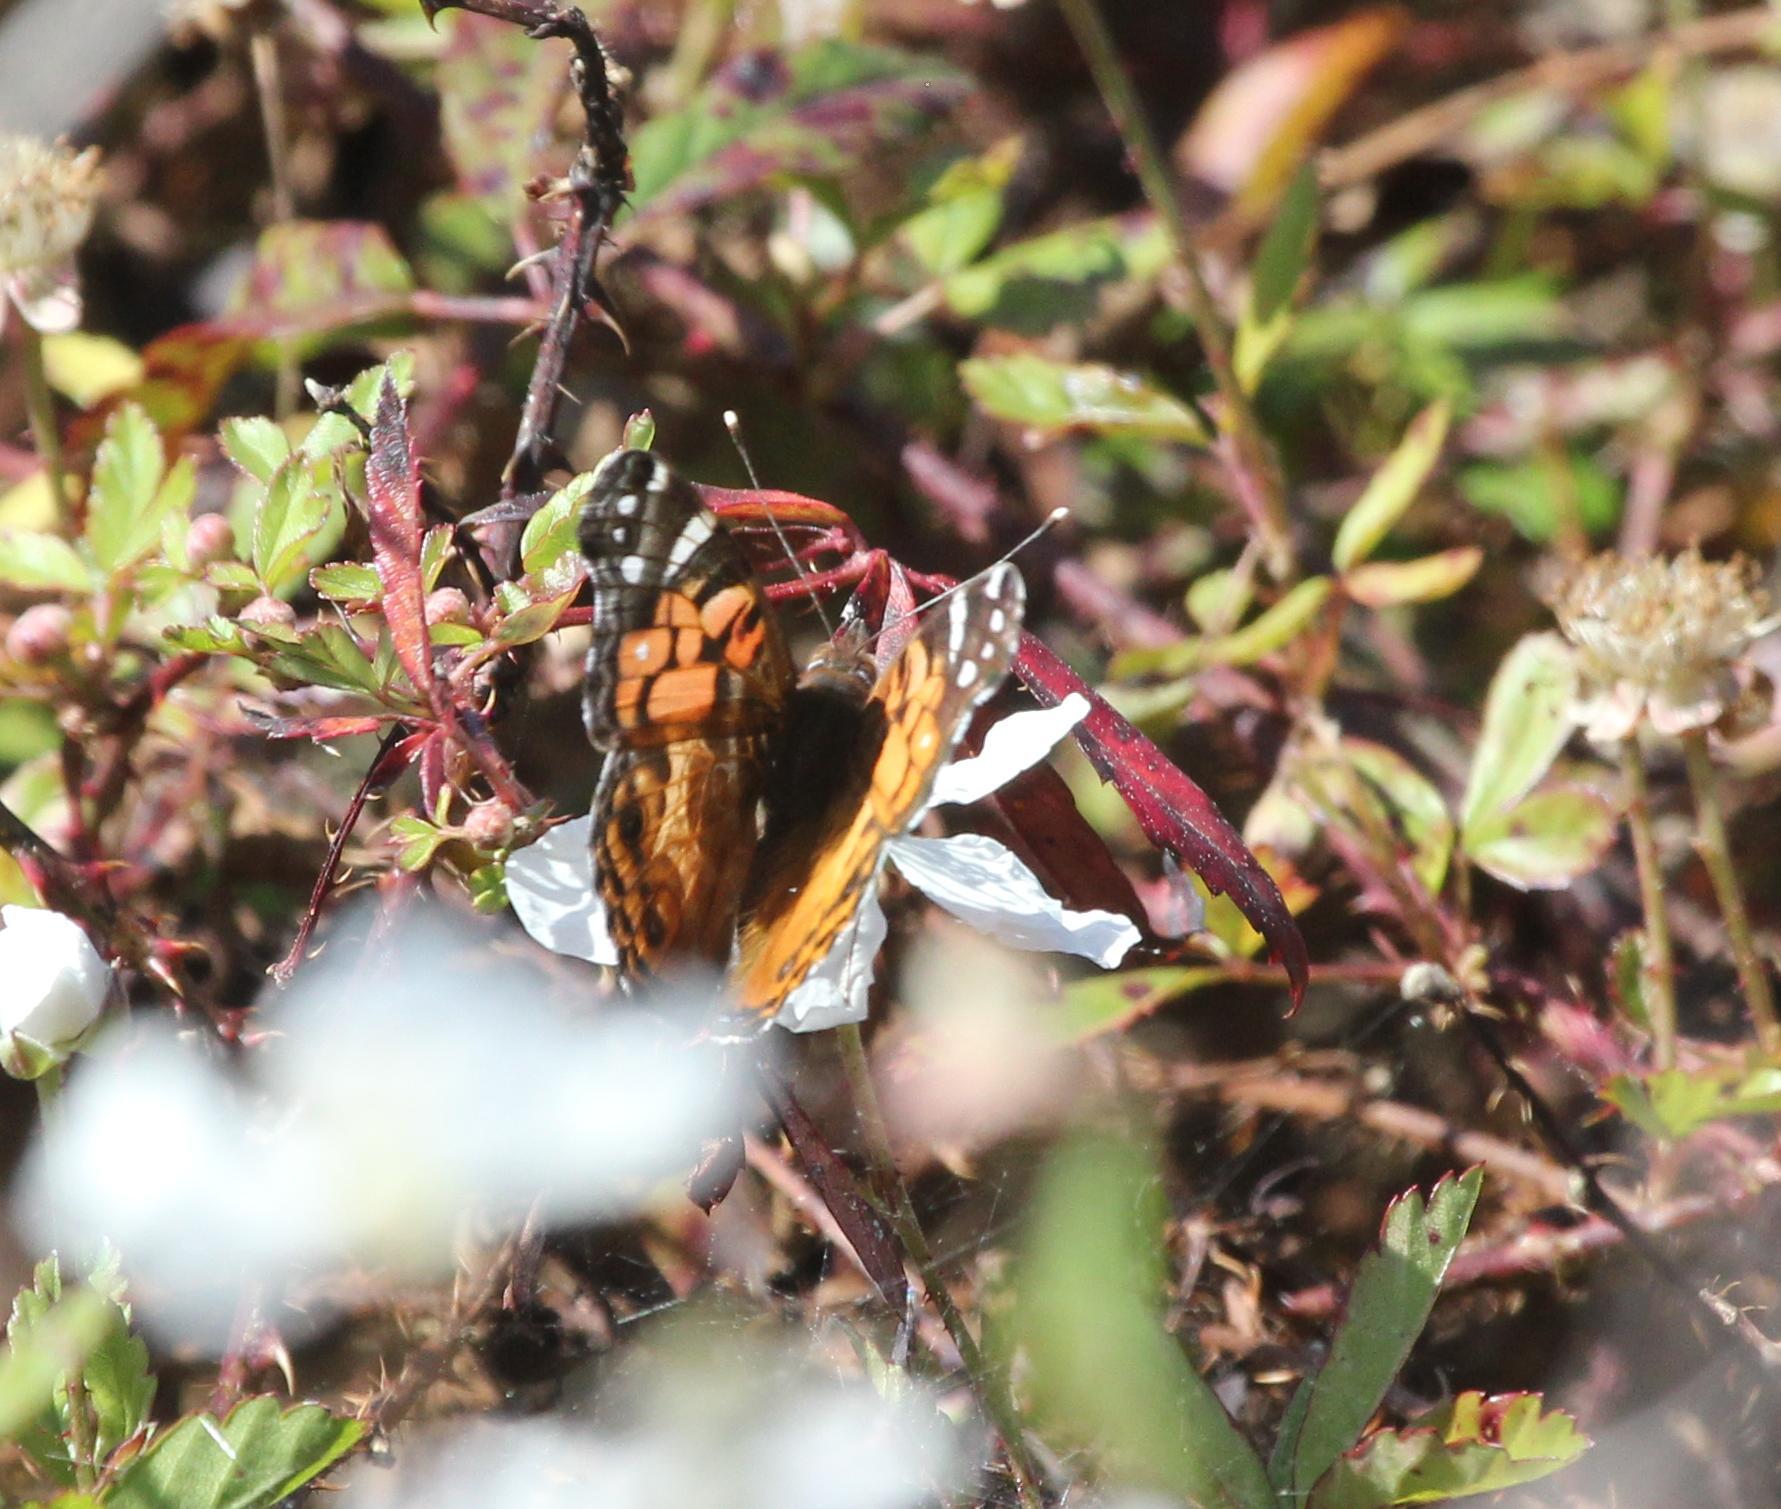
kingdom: Animalia
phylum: Arthropoda
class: Insecta
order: Lepidoptera
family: Nymphalidae
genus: Vanessa
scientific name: Vanessa virginiensis
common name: American lady
